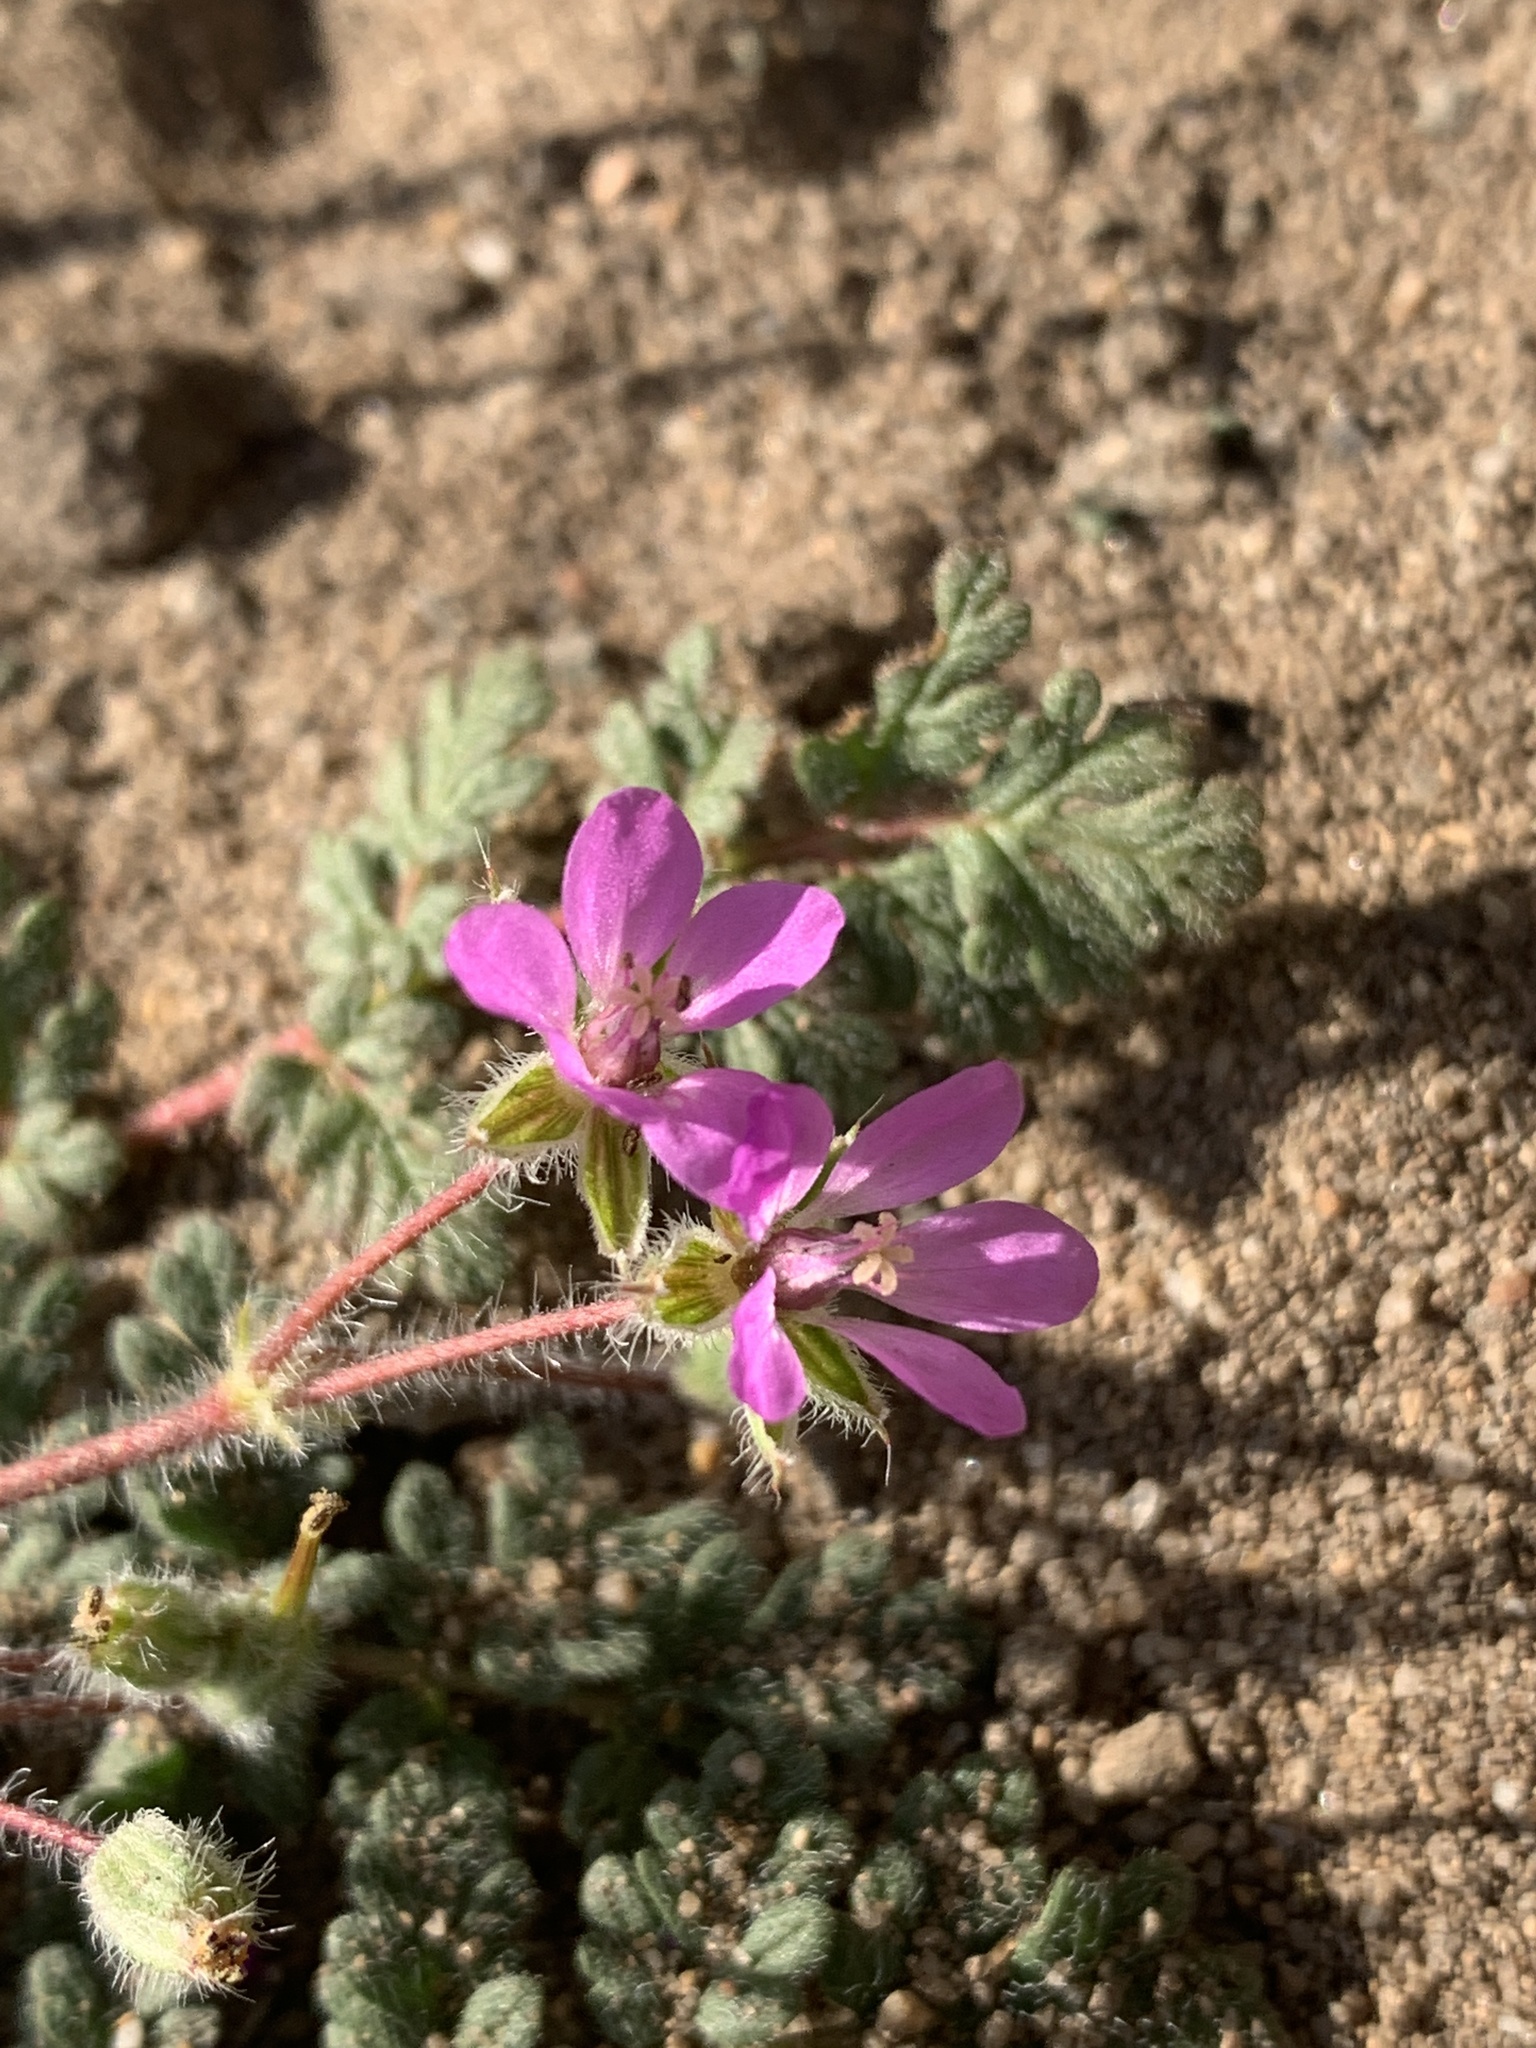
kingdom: Plantae
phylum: Tracheophyta
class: Magnoliopsida
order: Geraniales
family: Geraniaceae
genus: Erodium
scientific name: Erodium cicutarium
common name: Common stork's-bill
